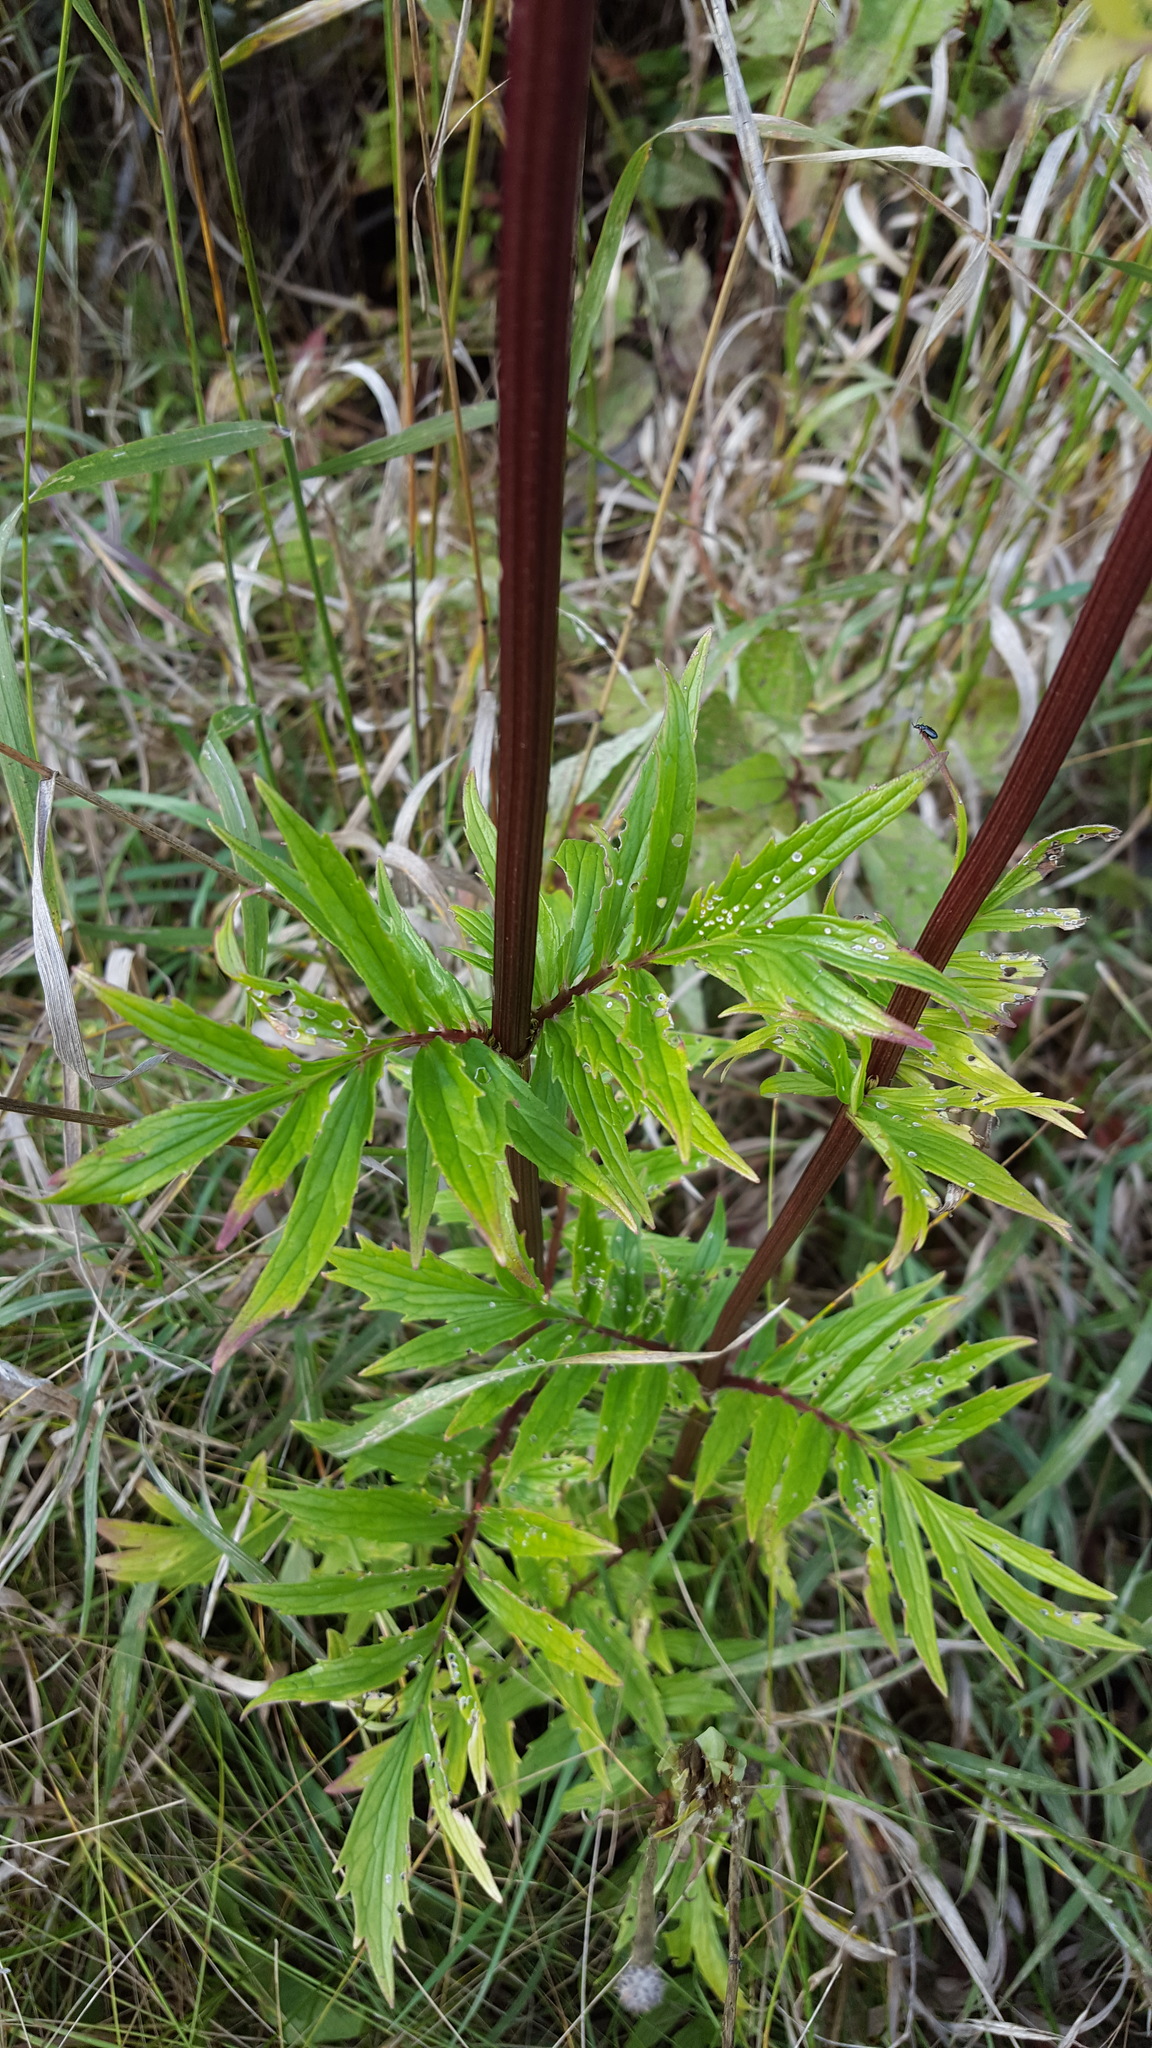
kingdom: Plantae
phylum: Tracheophyta
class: Magnoliopsida
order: Dipsacales
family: Caprifoliaceae
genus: Valeriana
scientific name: Valeriana officinalis
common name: Common valerian
